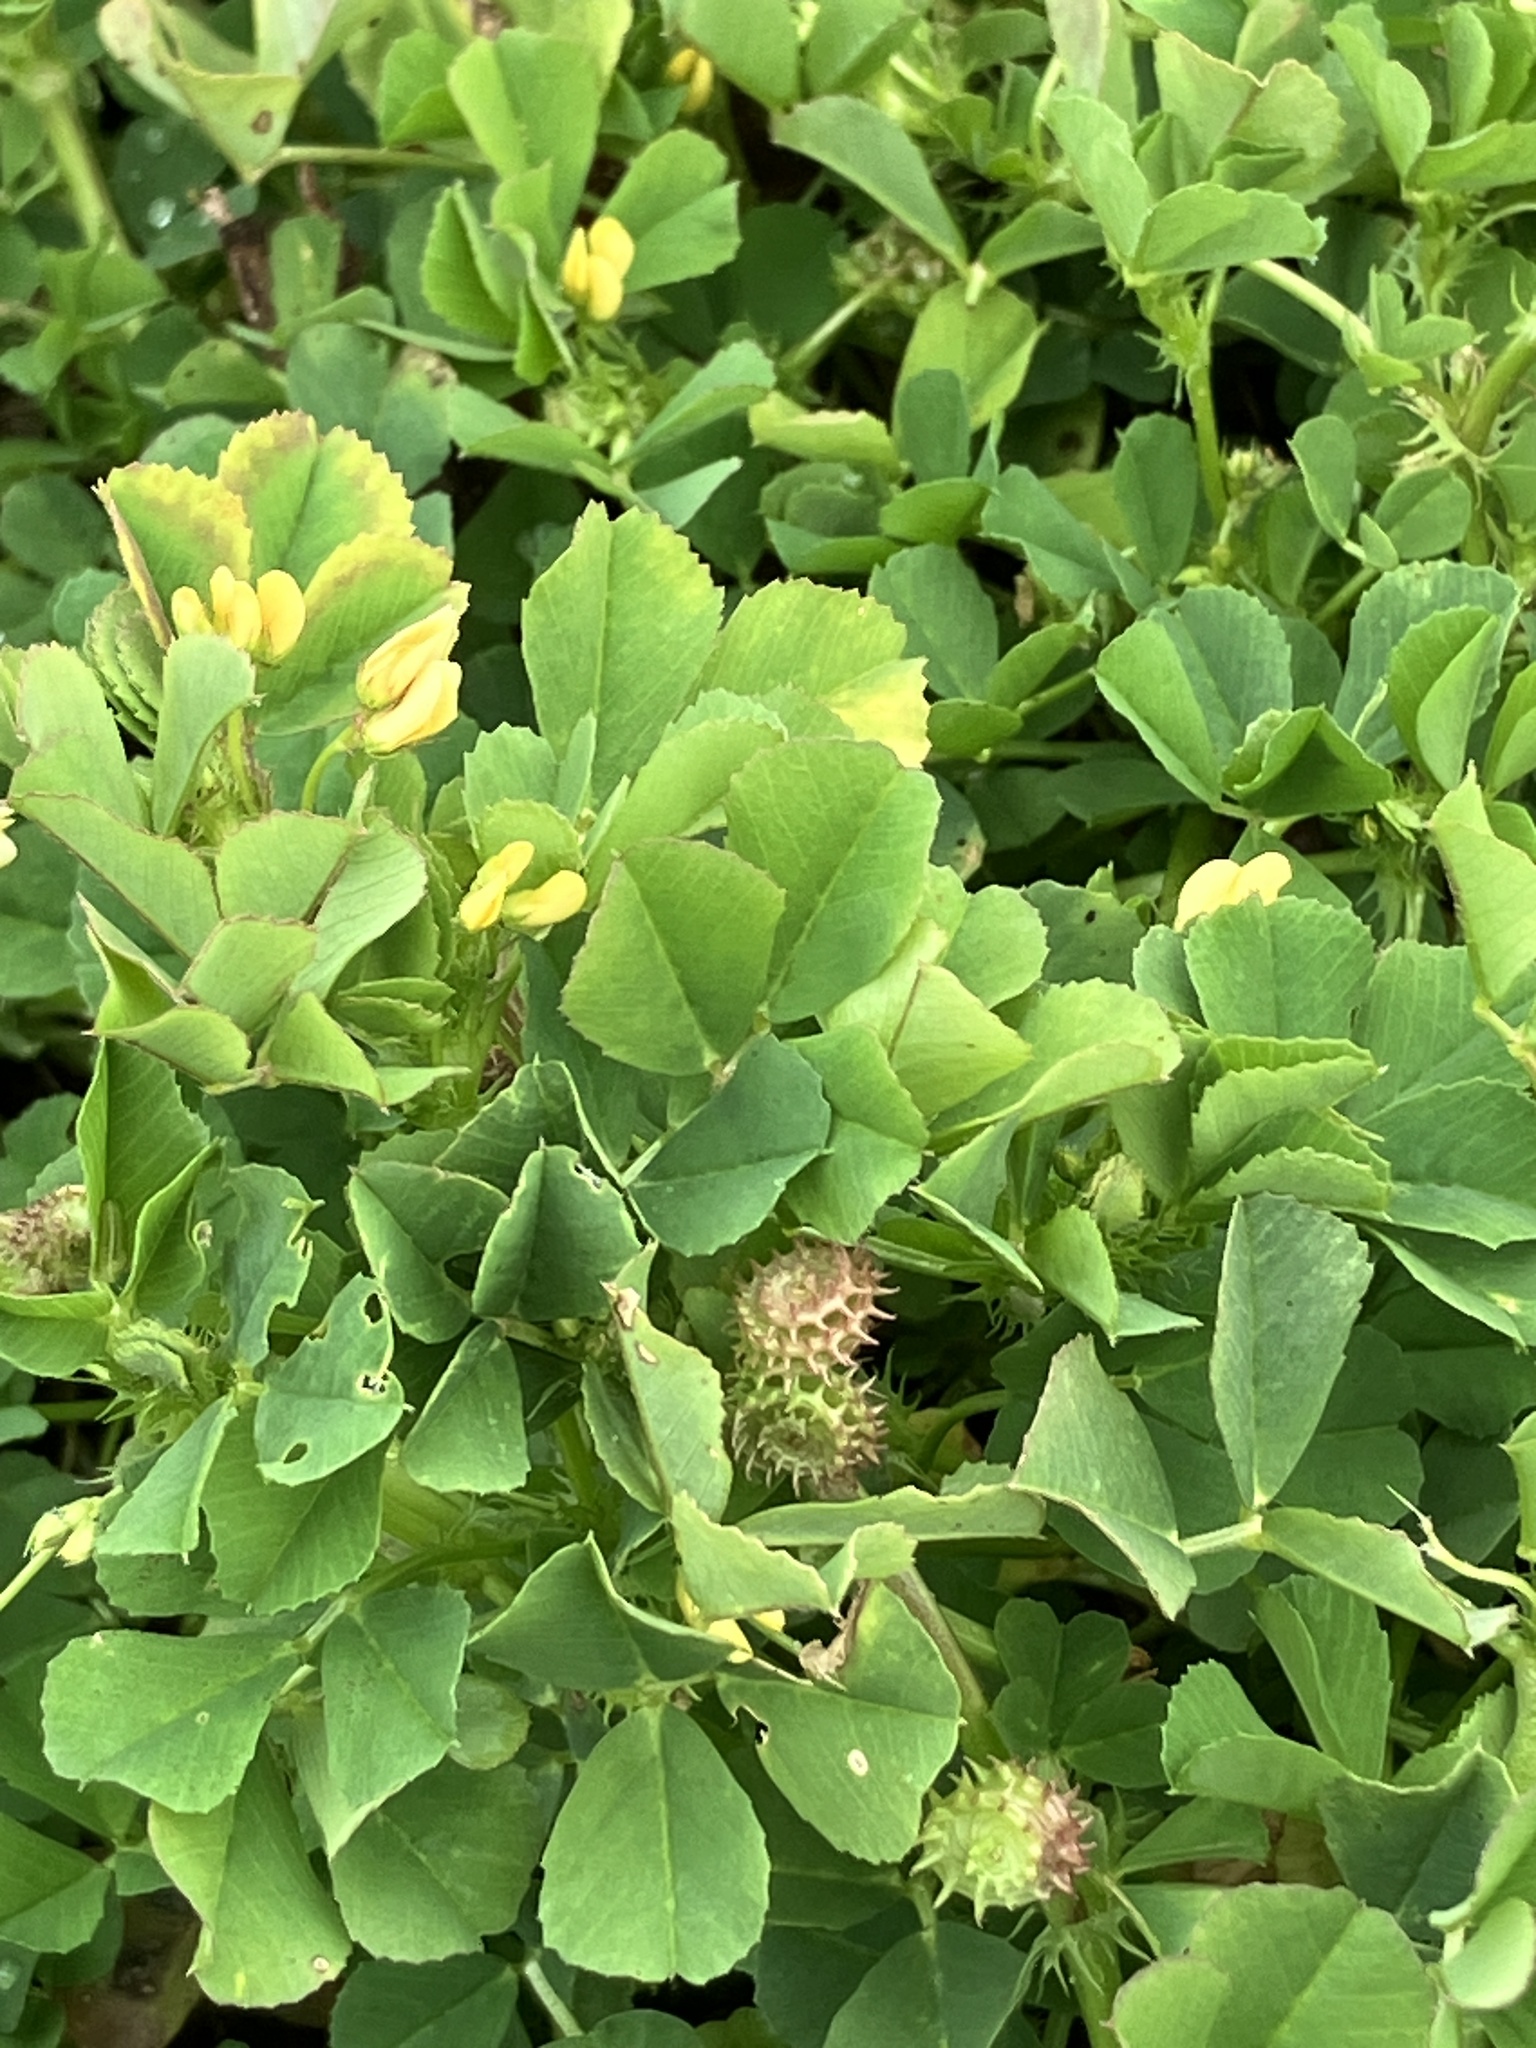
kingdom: Plantae
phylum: Tracheophyta
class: Magnoliopsida
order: Fabales
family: Fabaceae
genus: Medicago
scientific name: Medicago polymorpha
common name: Burclover
